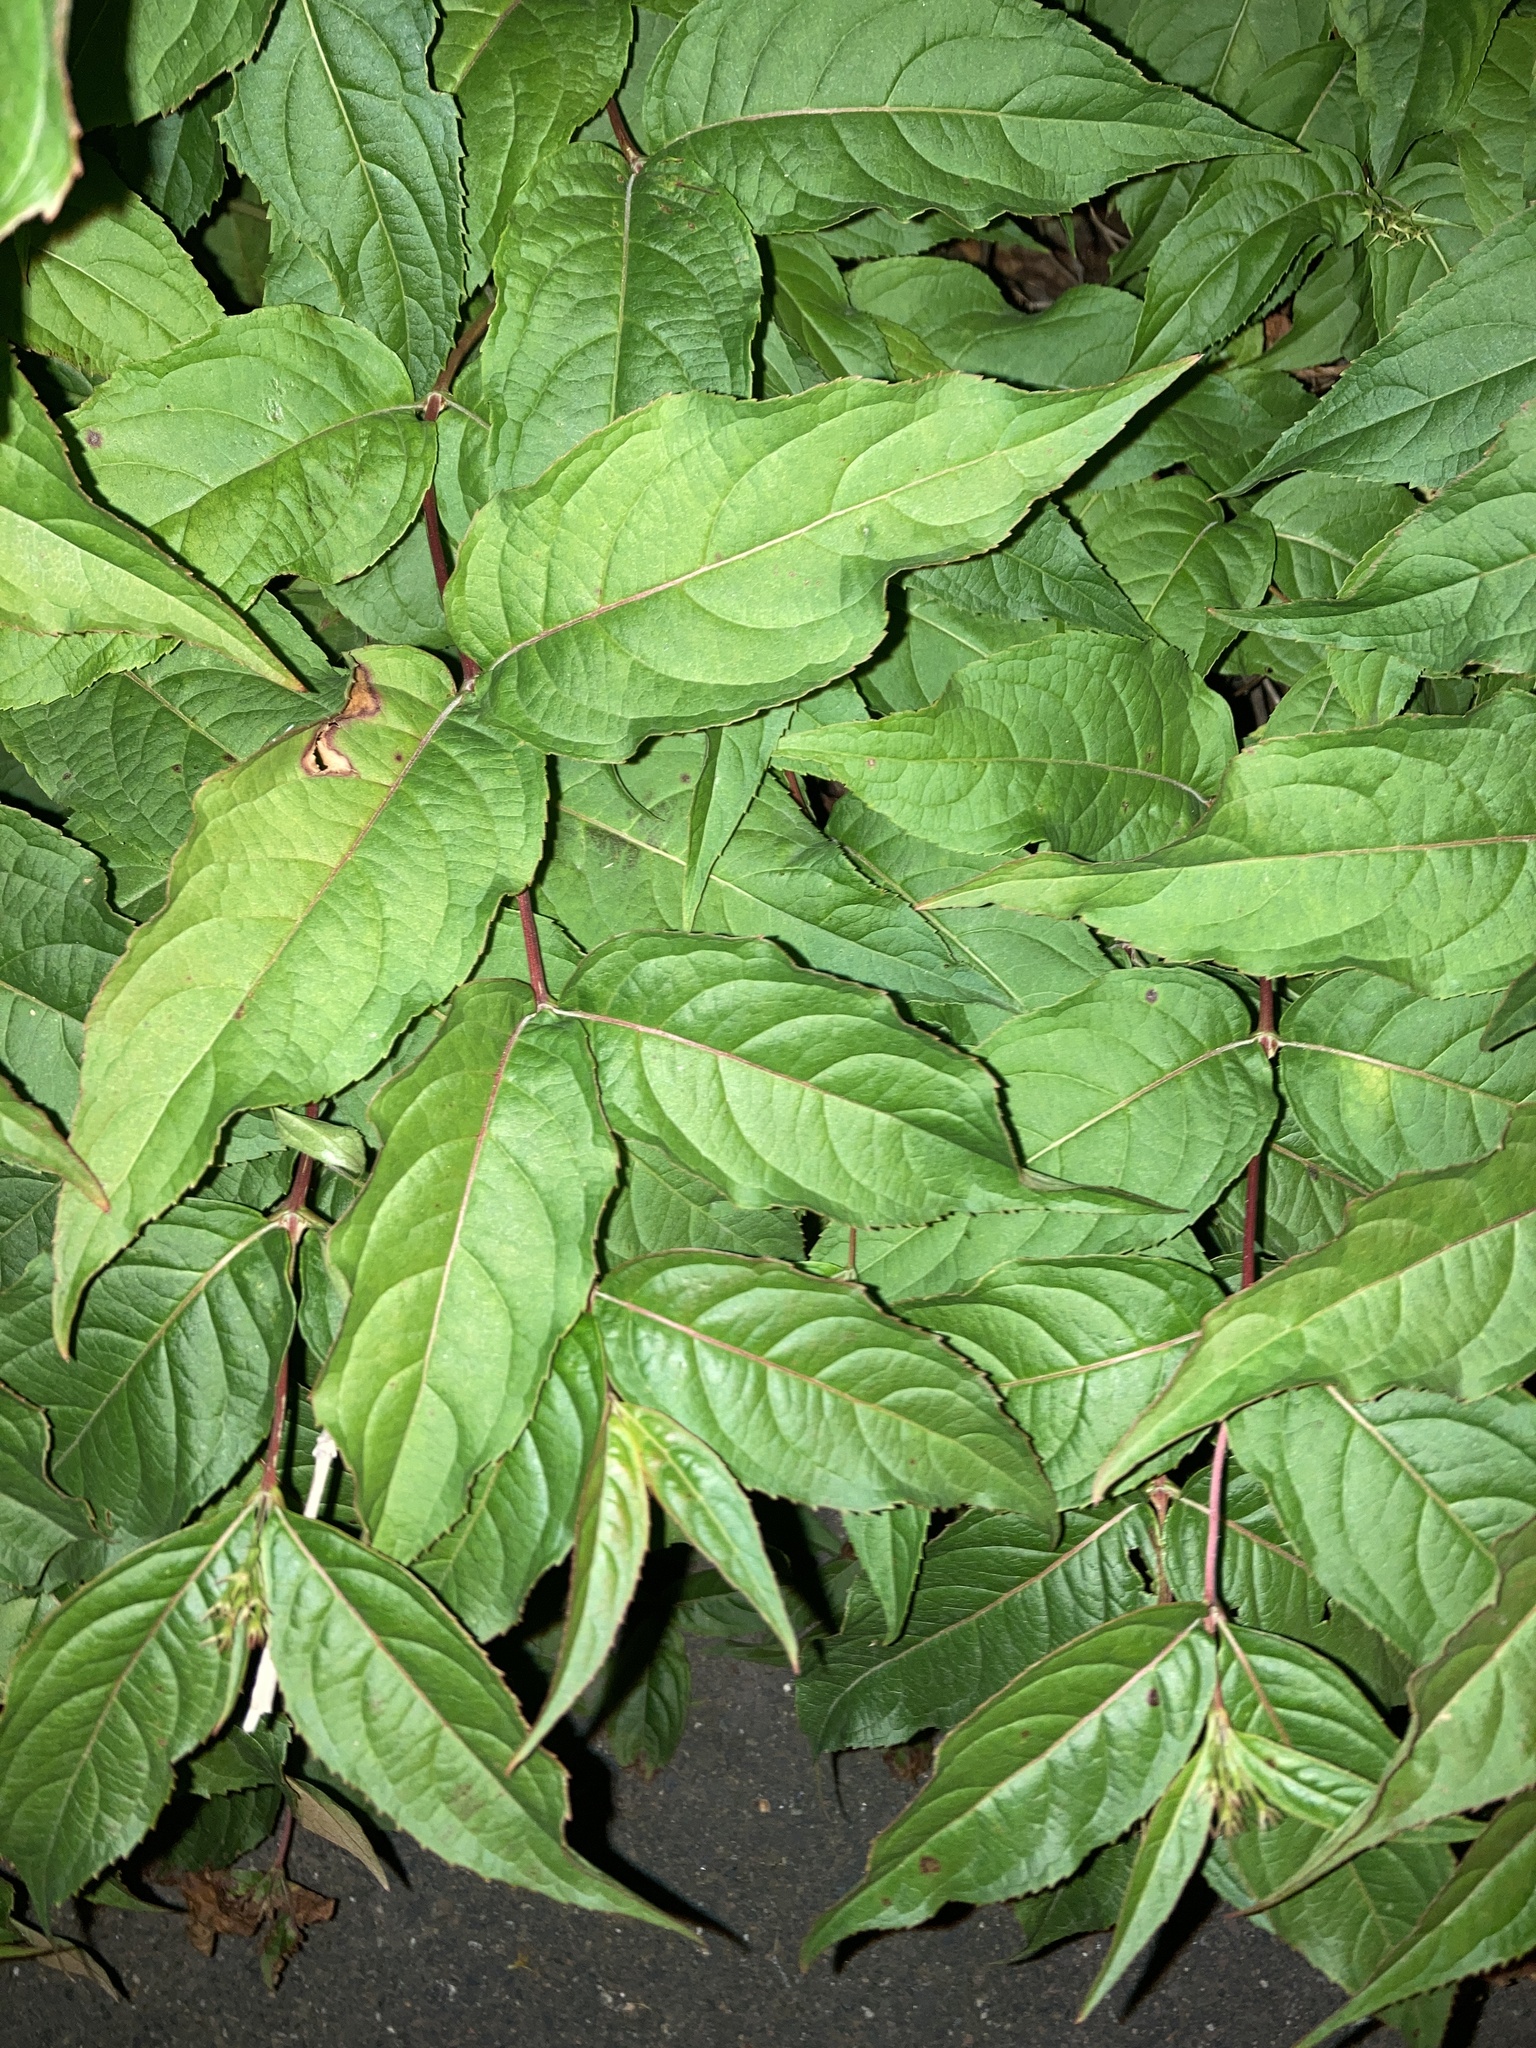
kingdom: Plantae
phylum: Tracheophyta
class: Magnoliopsida
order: Dipsacales
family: Caprifoliaceae
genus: Diervilla
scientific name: Diervilla lonicera
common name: Bush-honeysuckle
